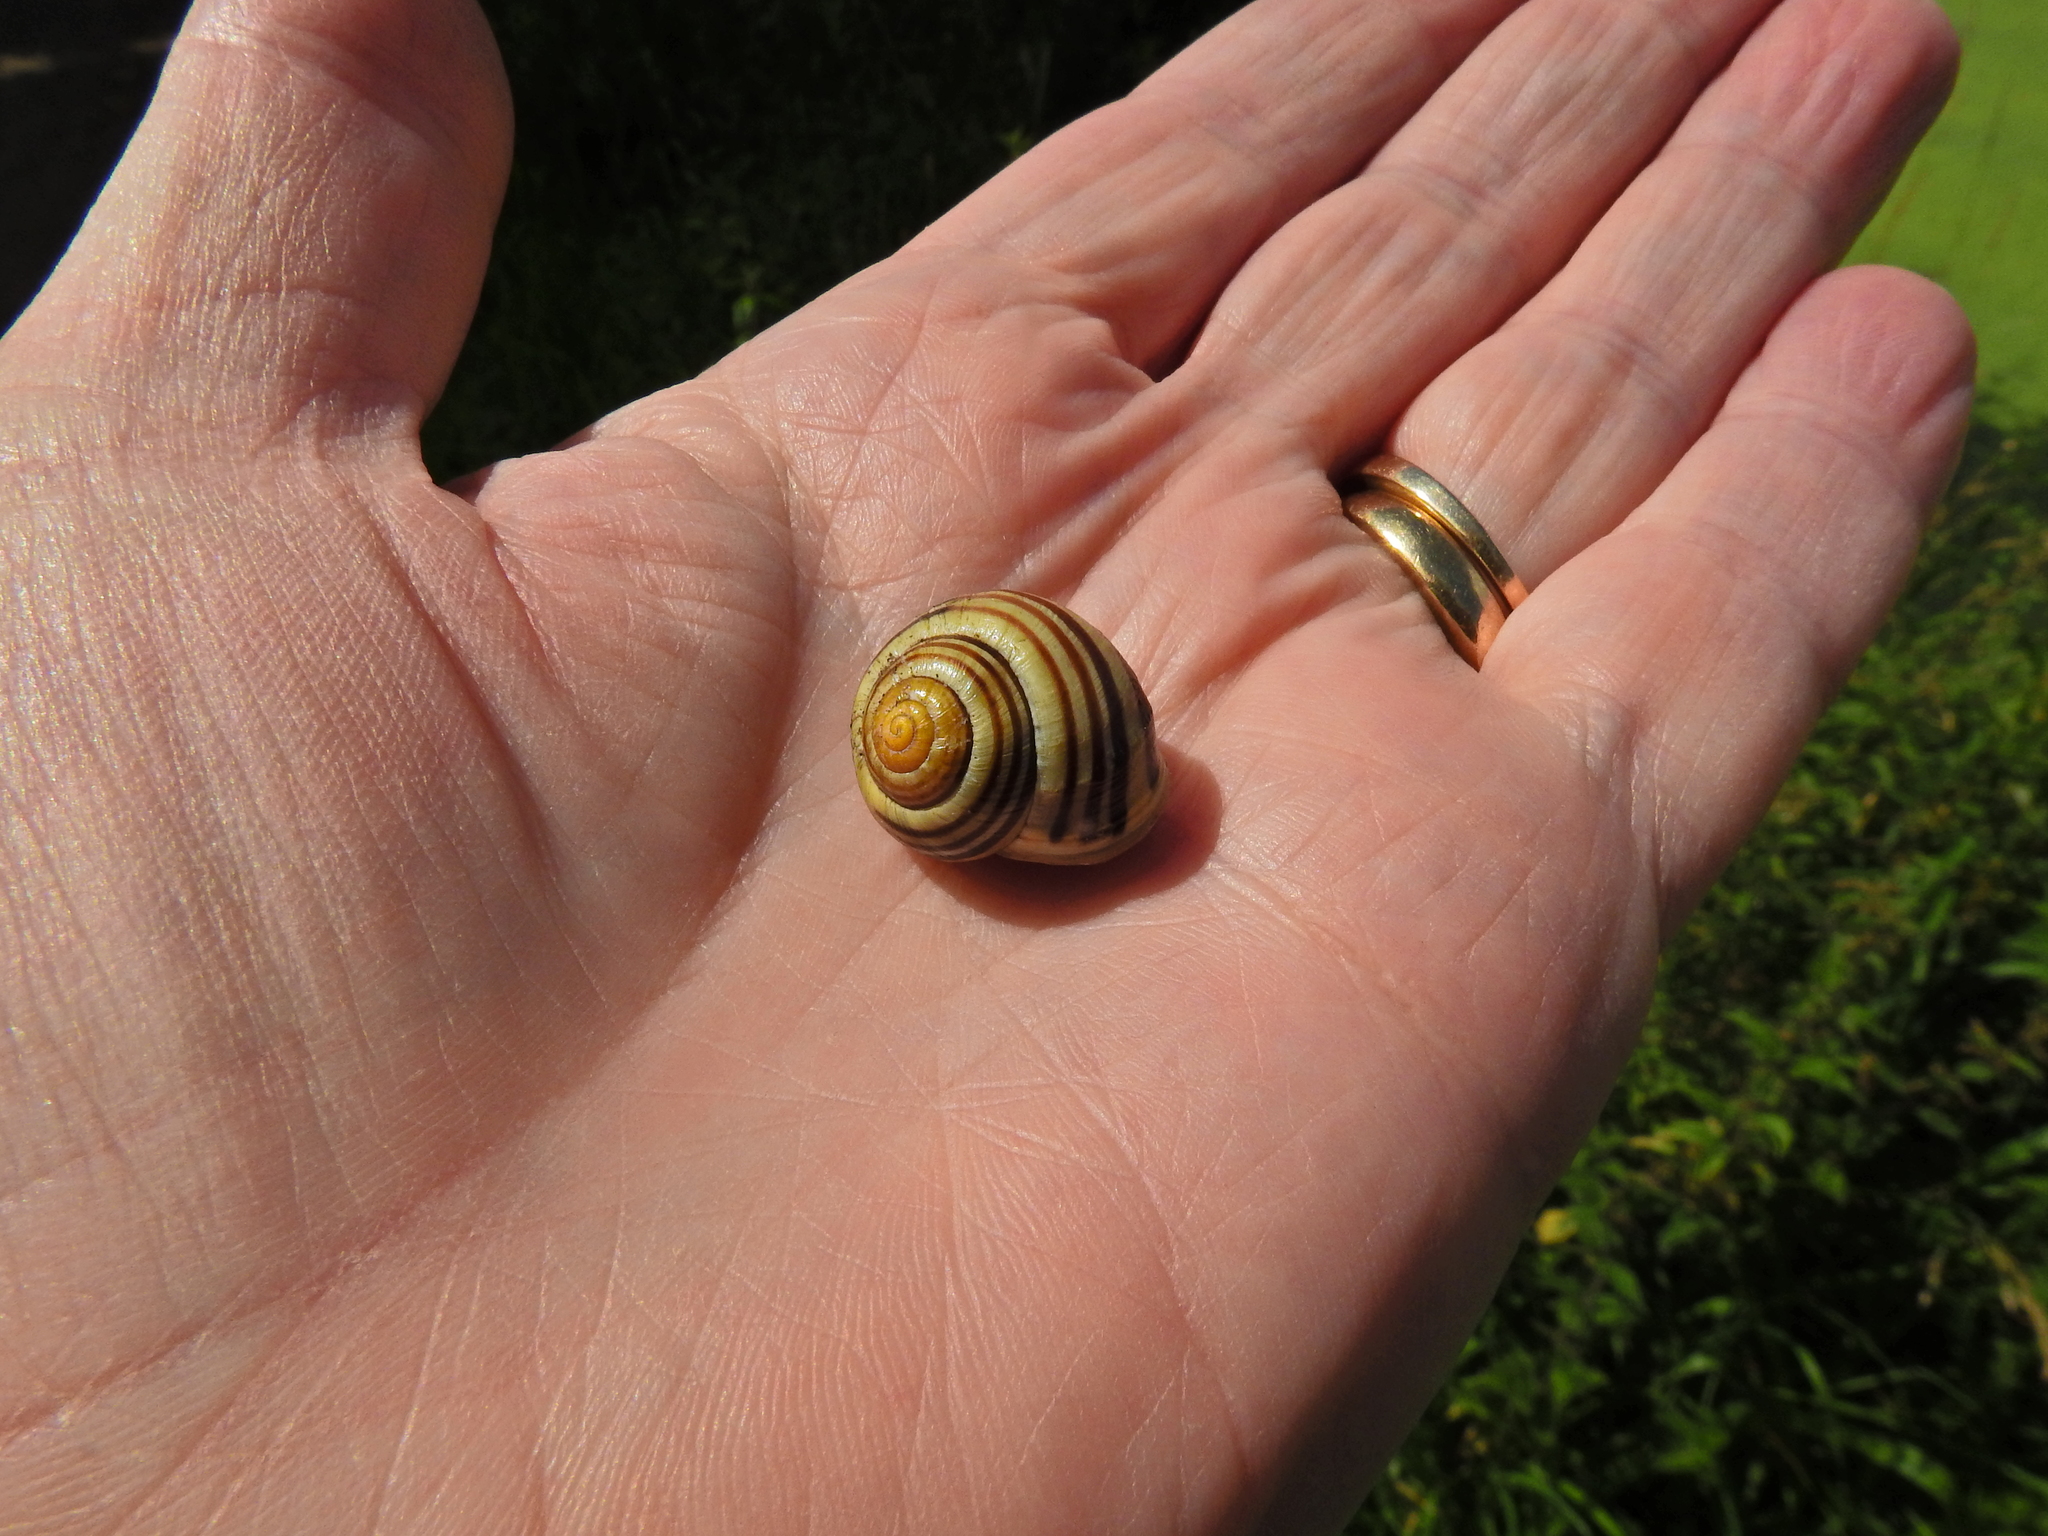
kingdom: Animalia
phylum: Mollusca
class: Gastropoda
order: Stylommatophora
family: Helicidae
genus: Cepaea
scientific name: Cepaea hortensis
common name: White-lip gardensnail
